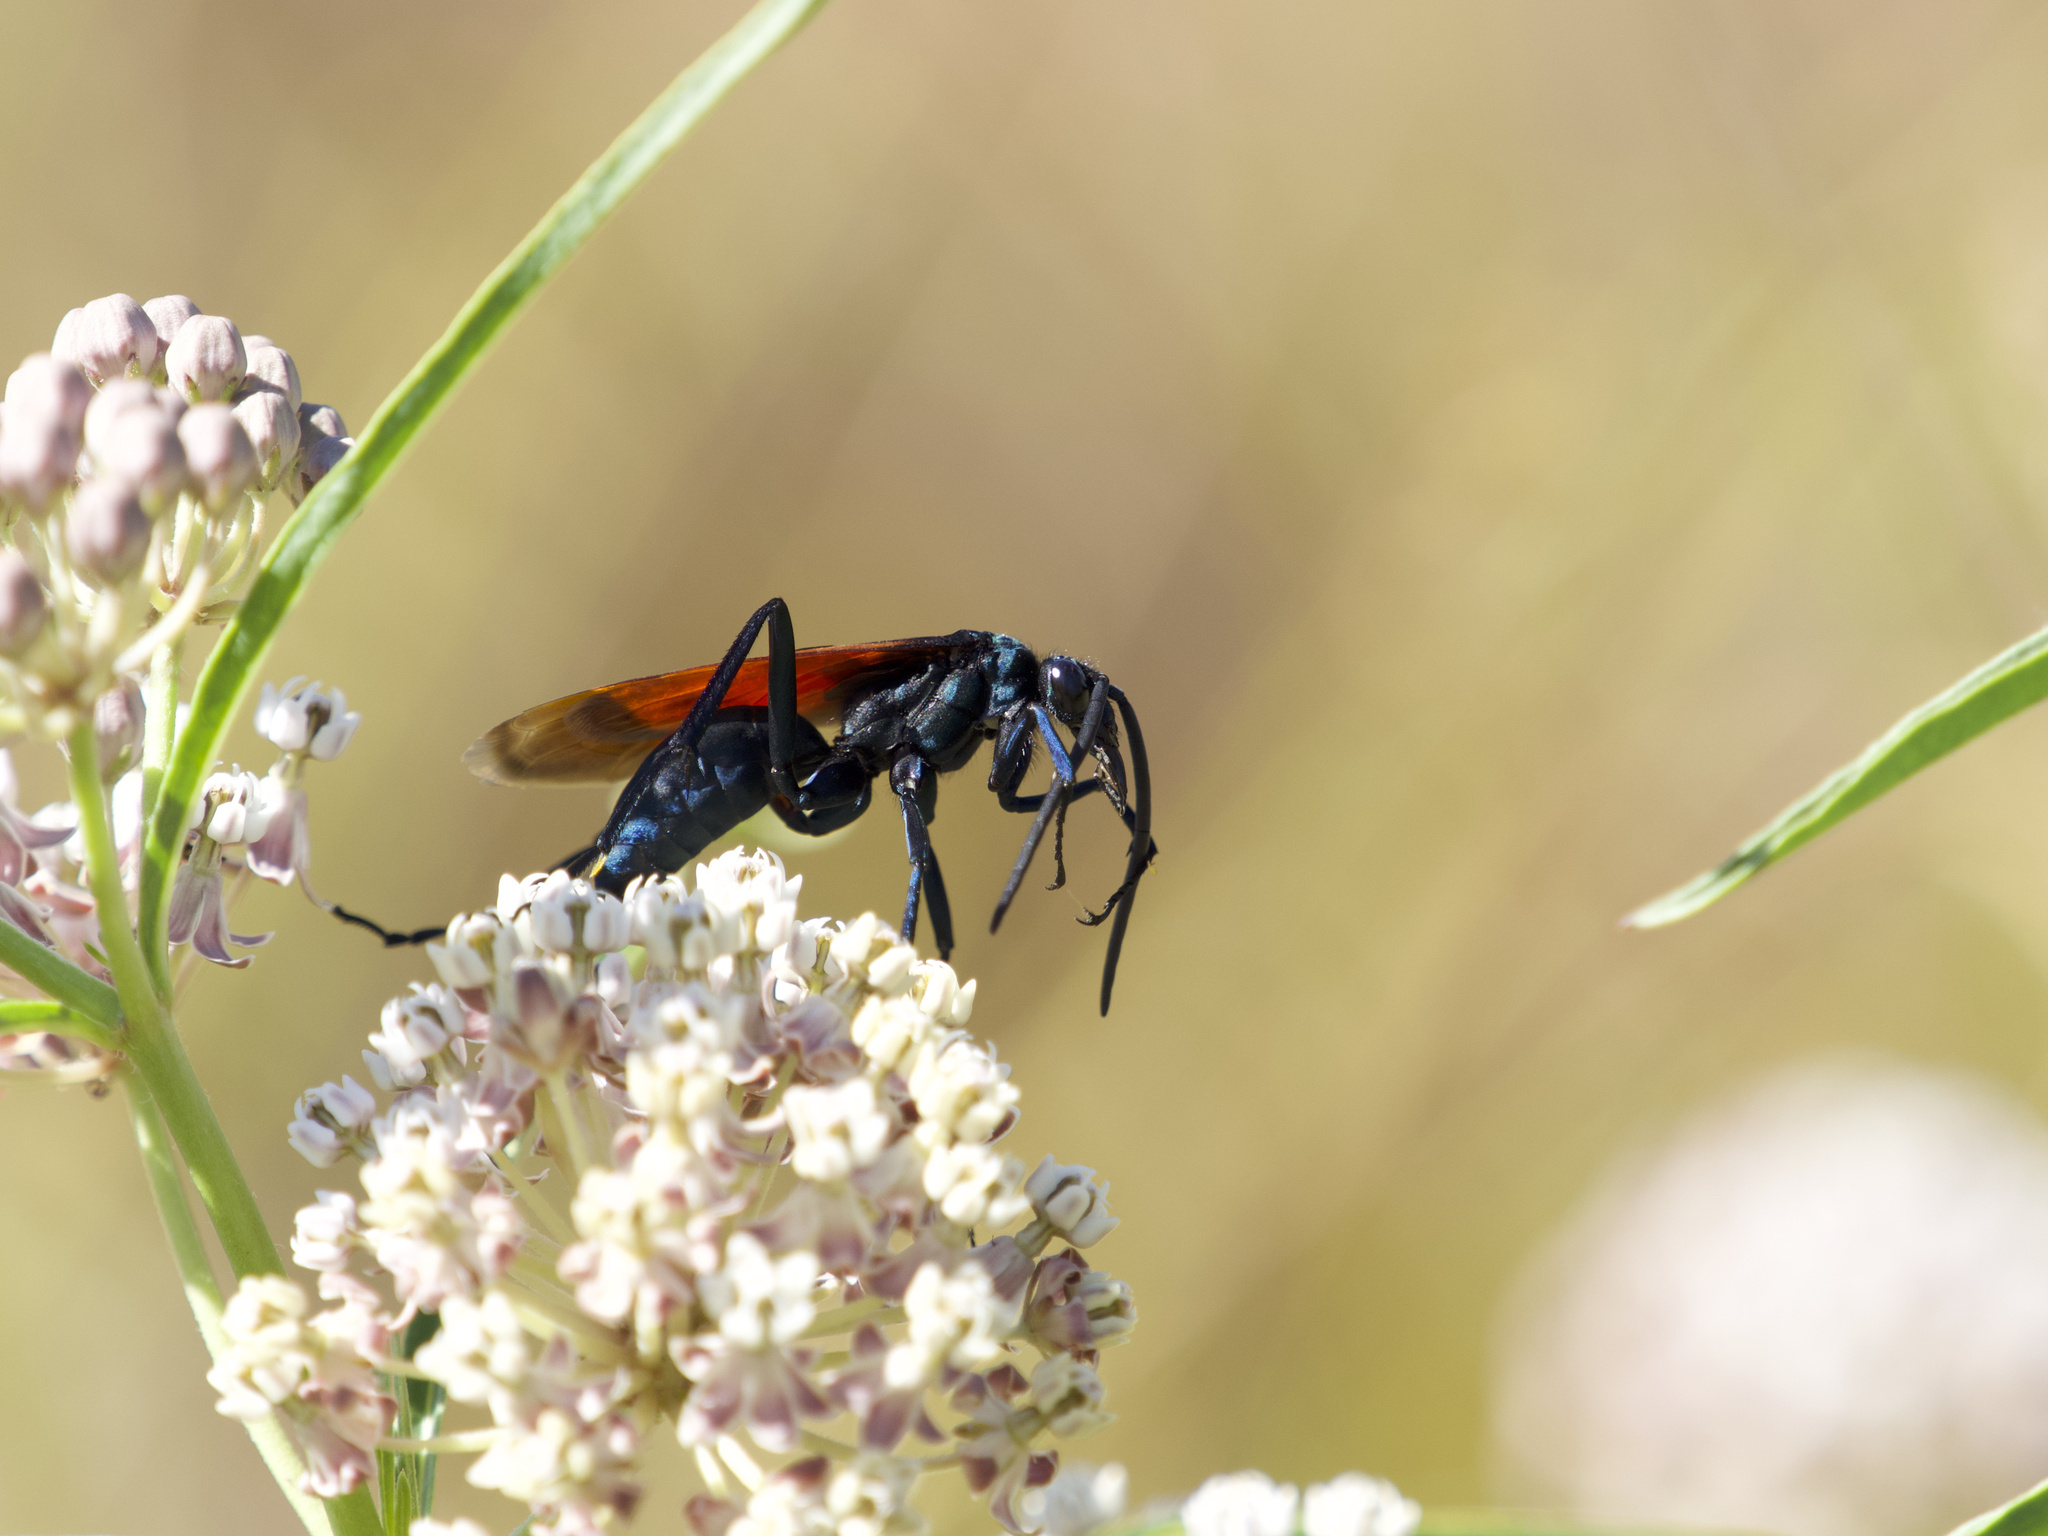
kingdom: Animalia
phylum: Arthropoda
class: Insecta
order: Hymenoptera
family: Pompilidae
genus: Pepsis
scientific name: Pepsis thisbe
